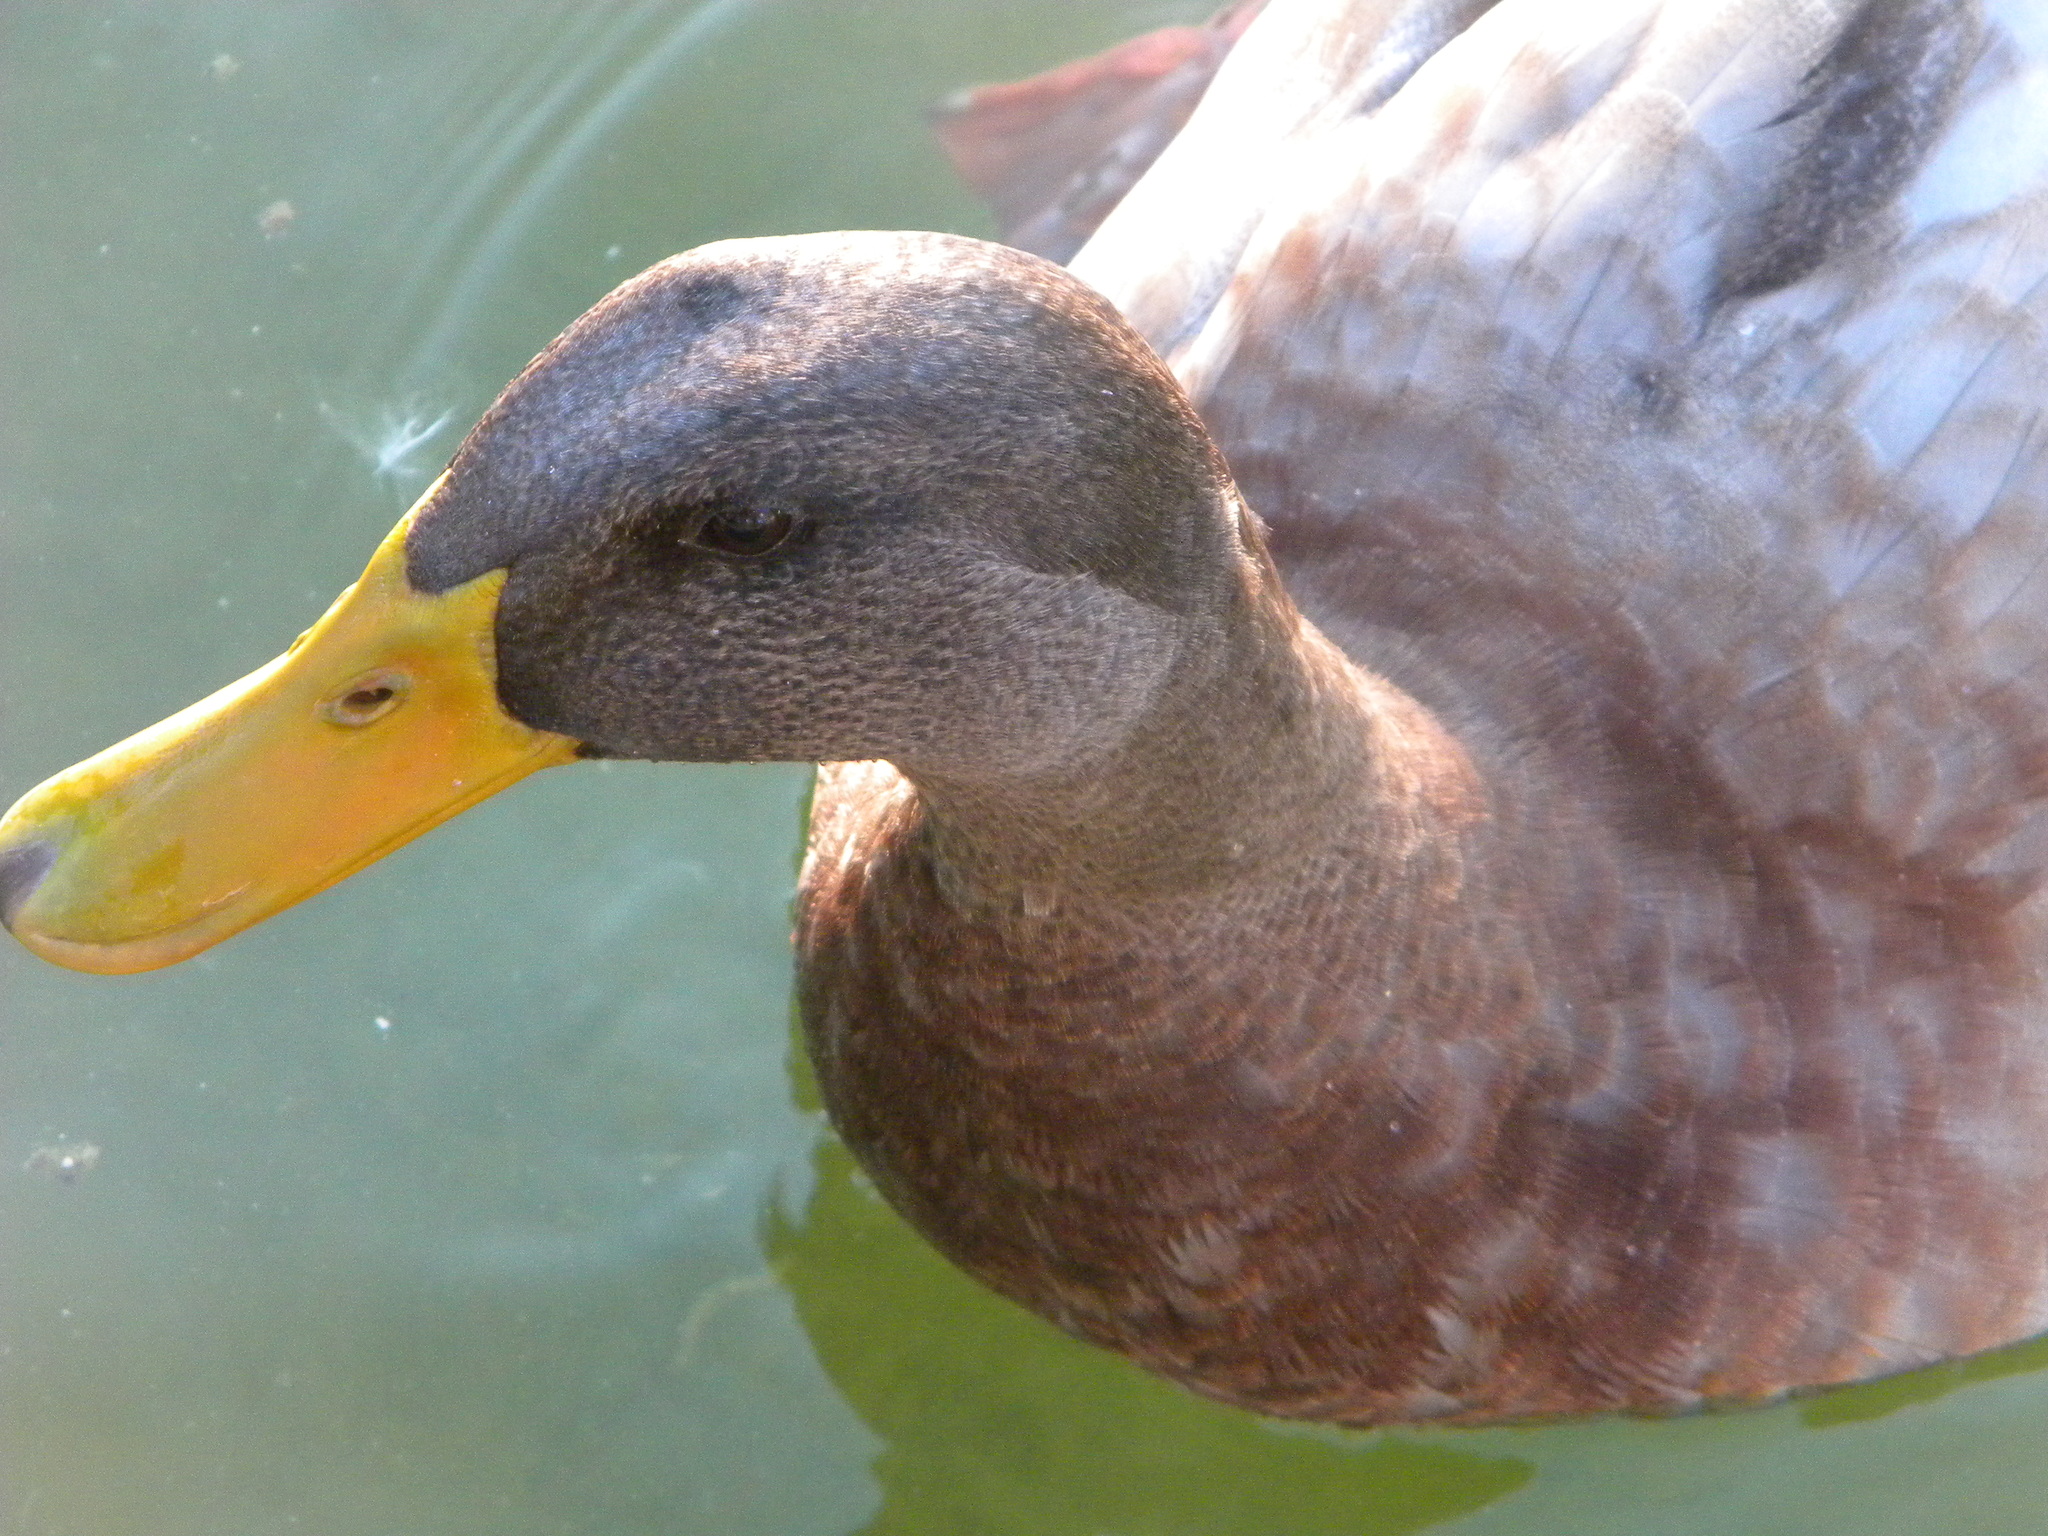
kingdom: Animalia
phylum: Chordata
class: Aves
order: Anseriformes
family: Anatidae
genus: Anas
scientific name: Anas platyrhynchos
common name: Mallard
